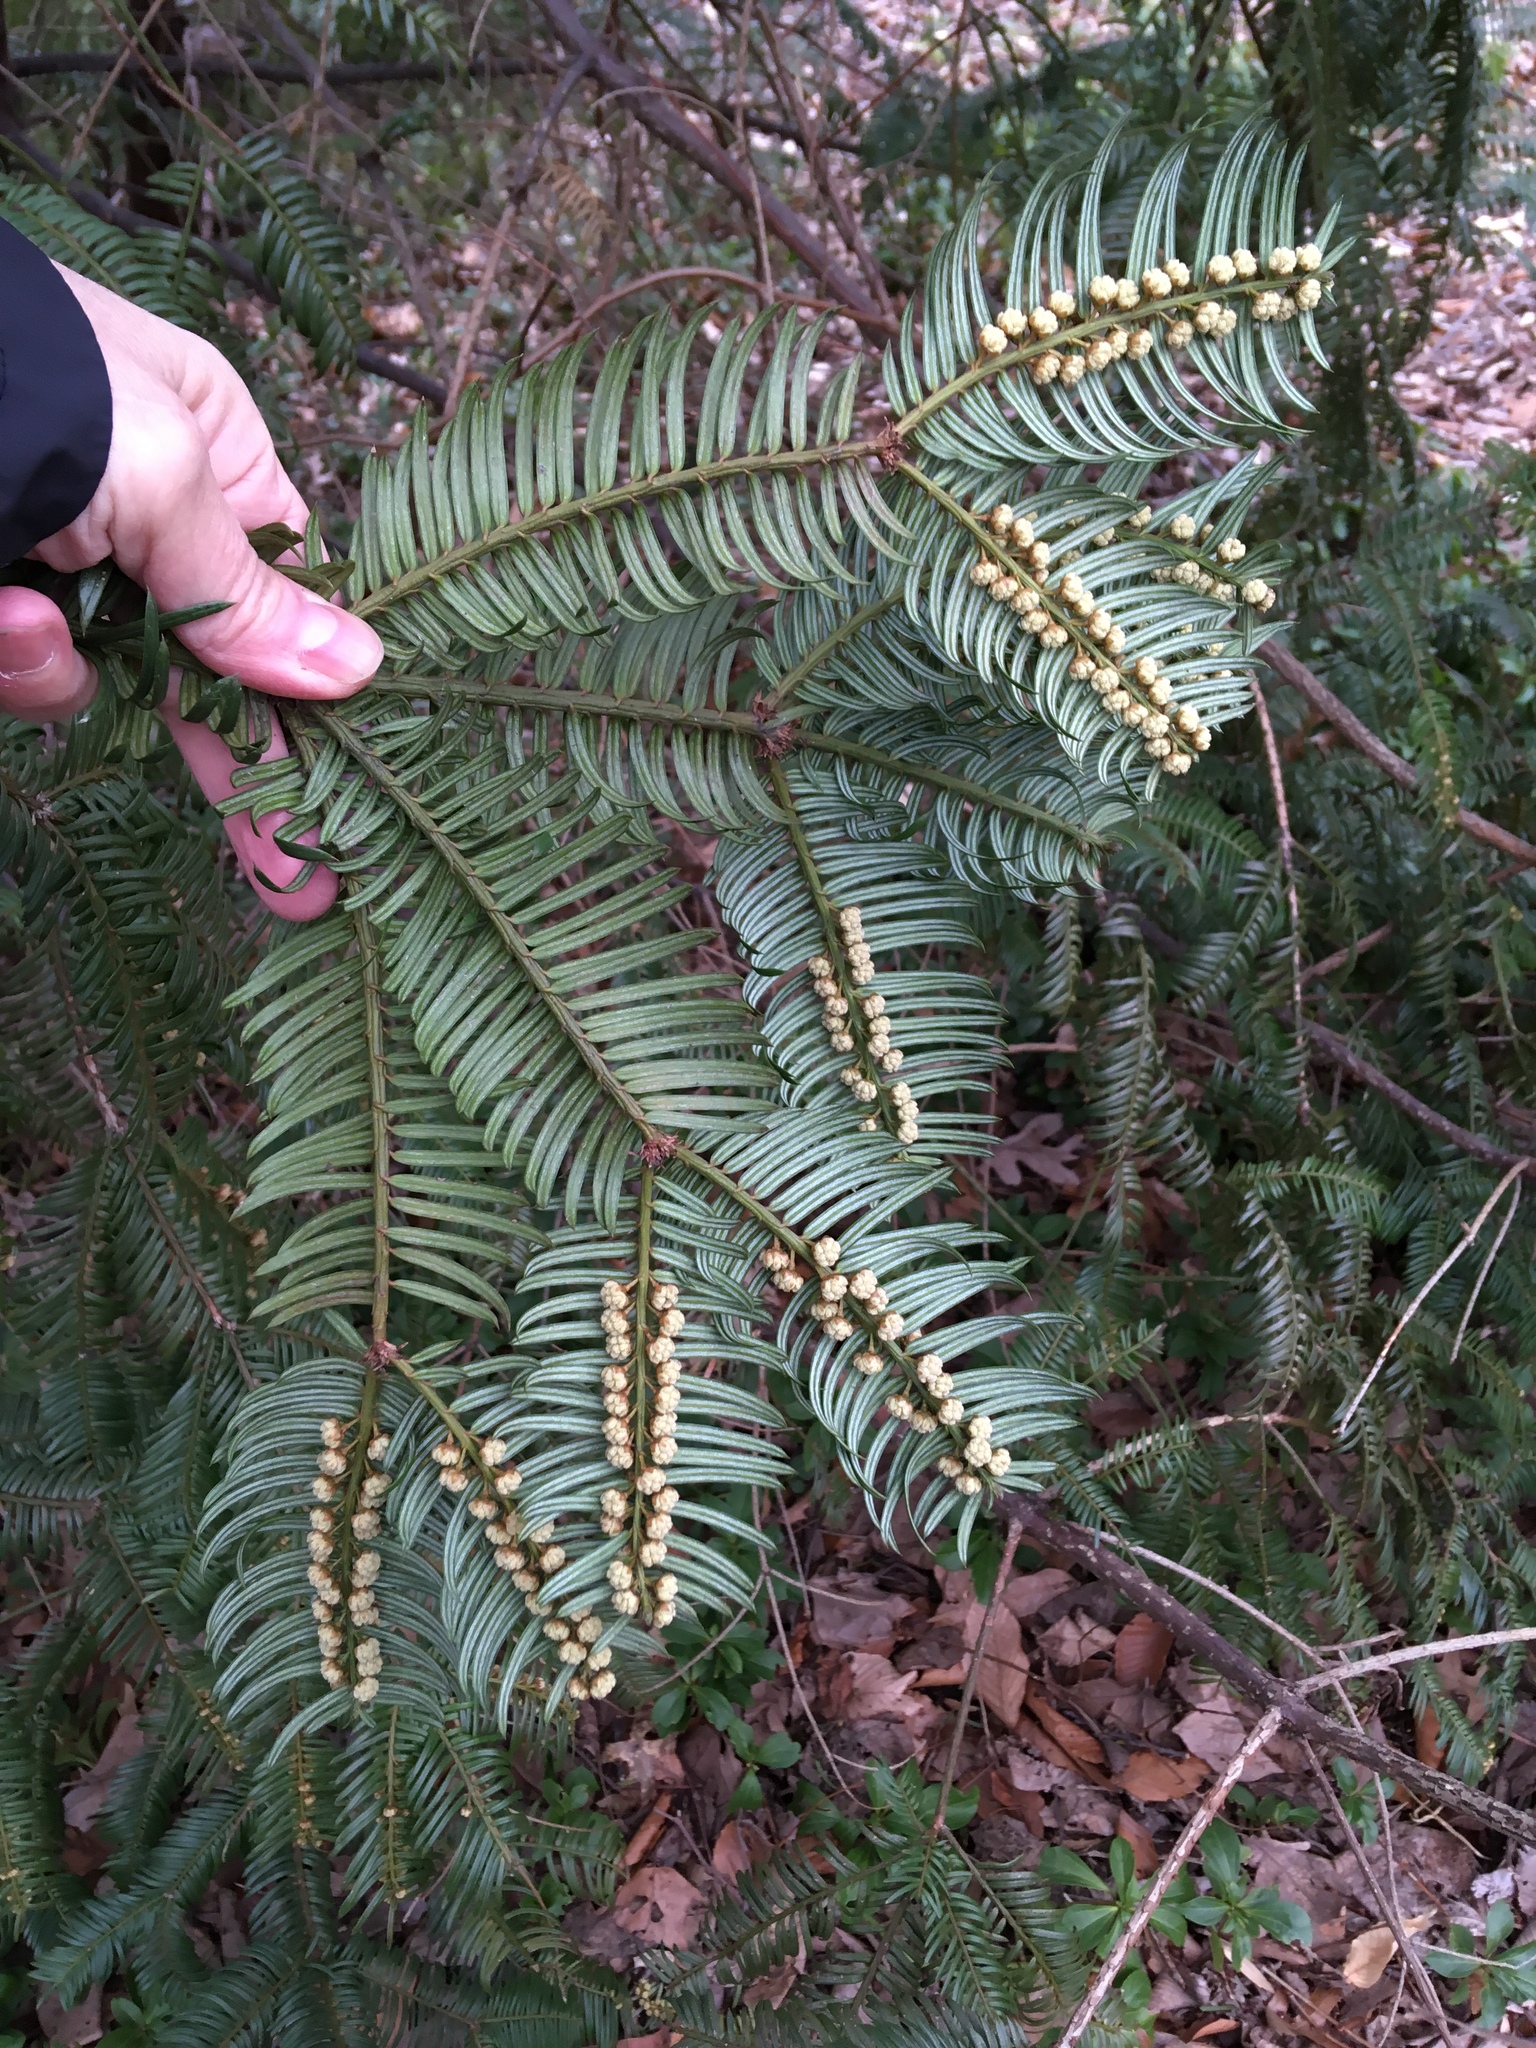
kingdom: Plantae
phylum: Tracheophyta
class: Pinopsida
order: Pinales
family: Cephalotaxaceae
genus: Cephalotaxus
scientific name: Cephalotaxus harringtonia
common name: Japanese plum-yew
